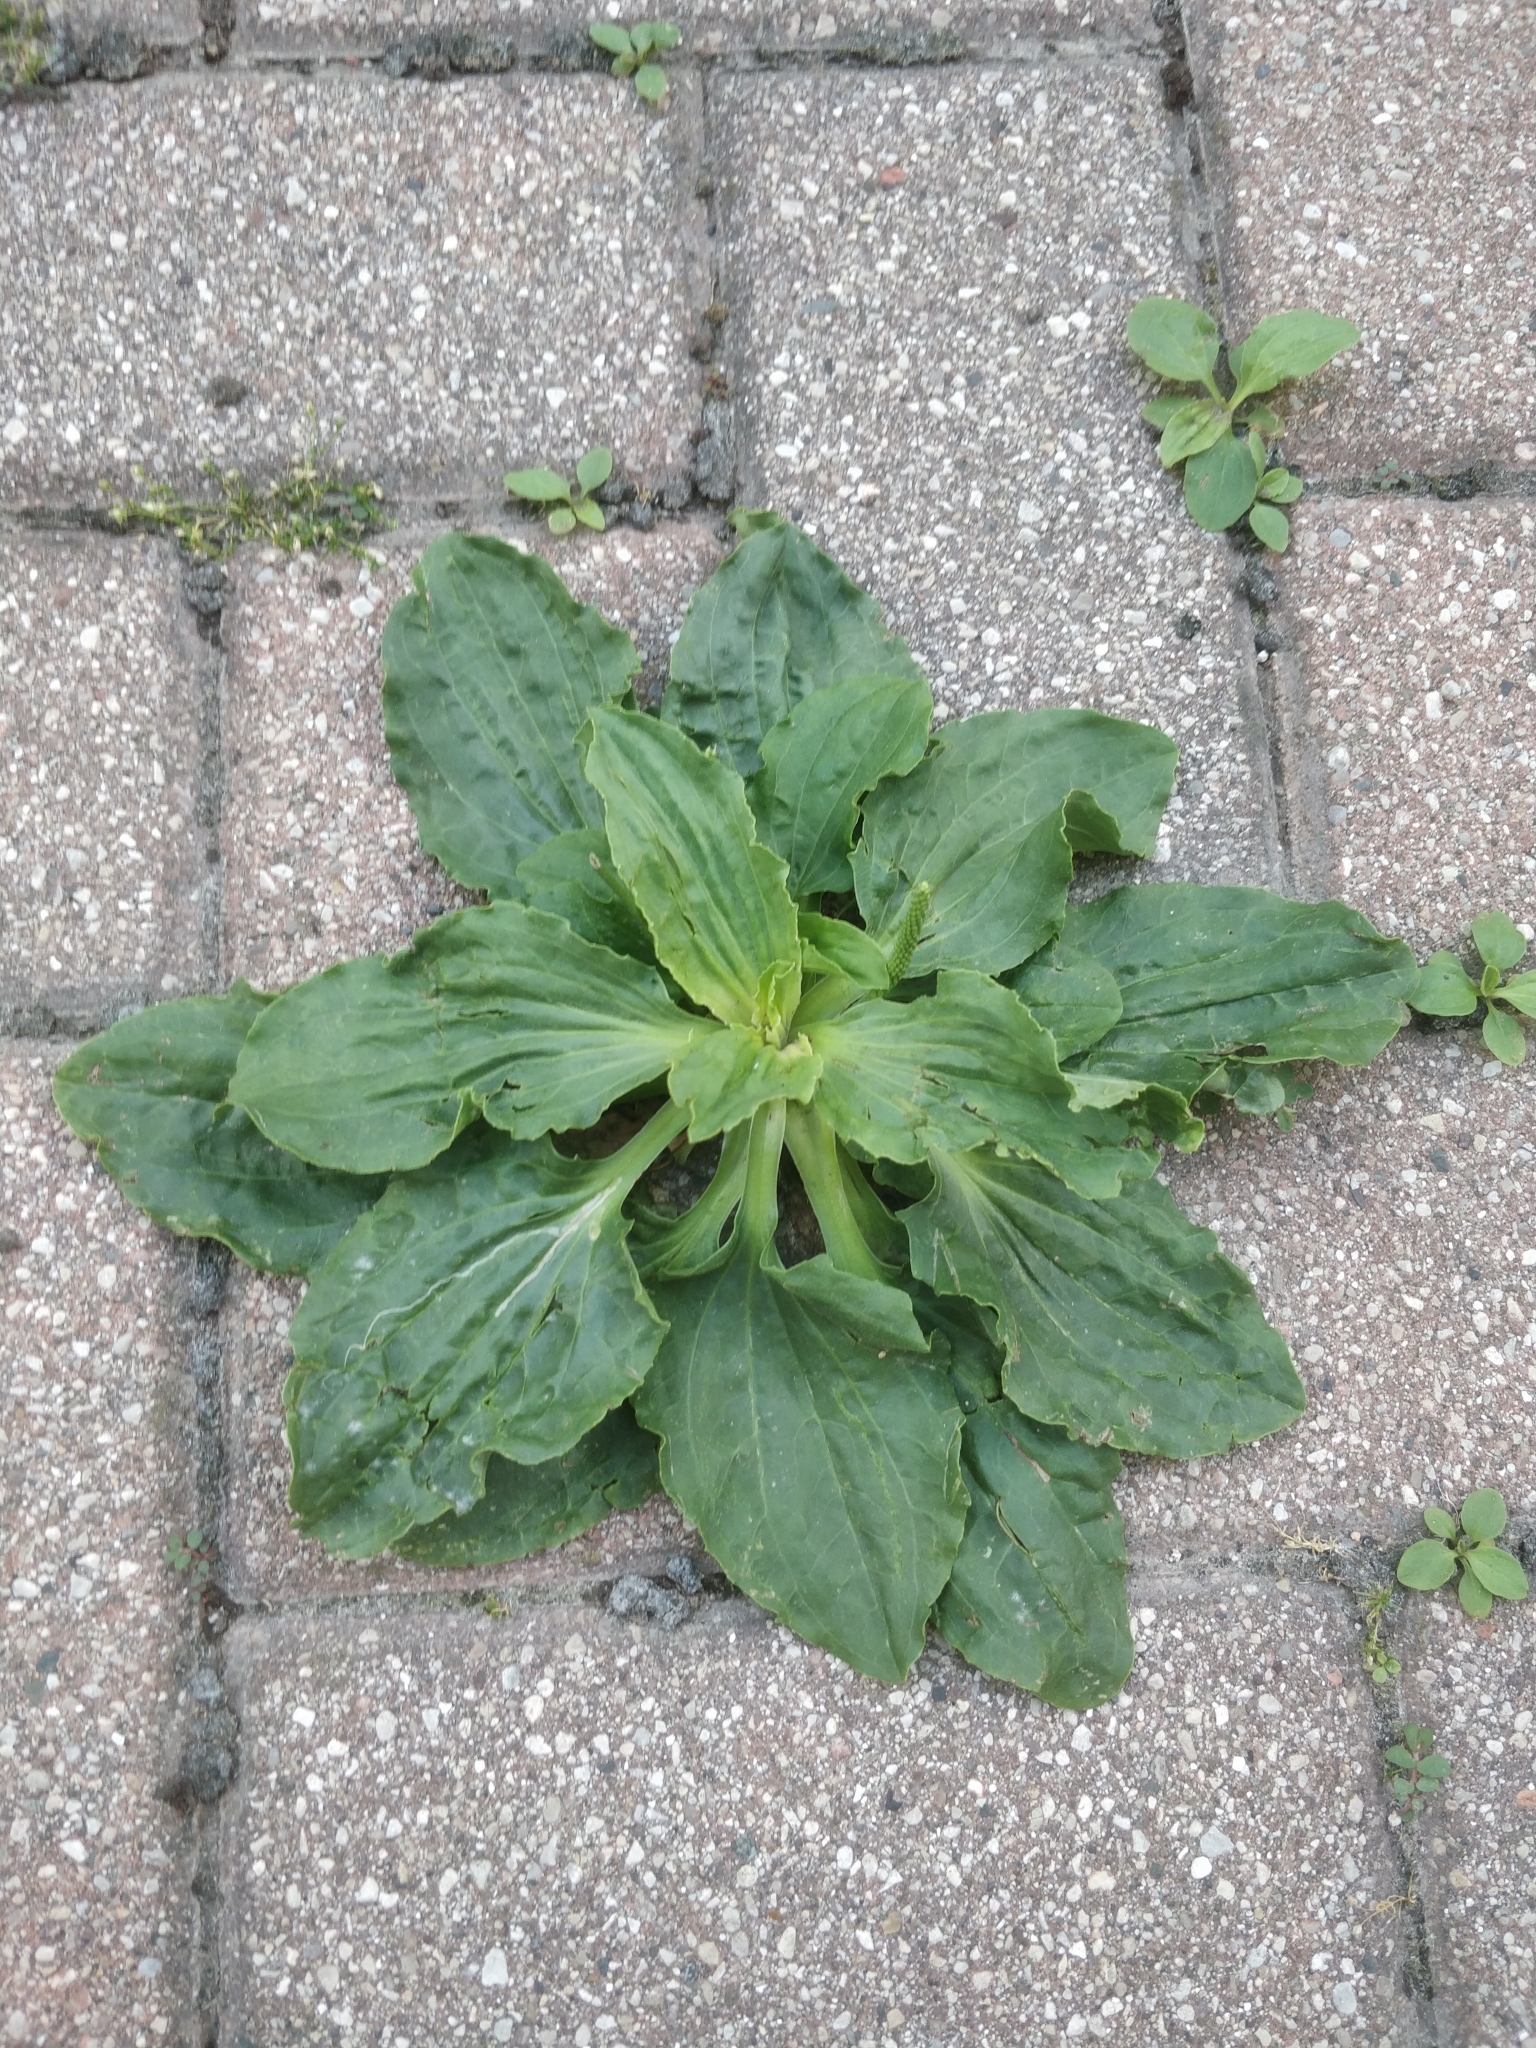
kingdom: Plantae
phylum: Tracheophyta
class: Magnoliopsida
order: Lamiales
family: Plantaginaceae
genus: Plantago
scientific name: Plantago major
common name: Common plantain
